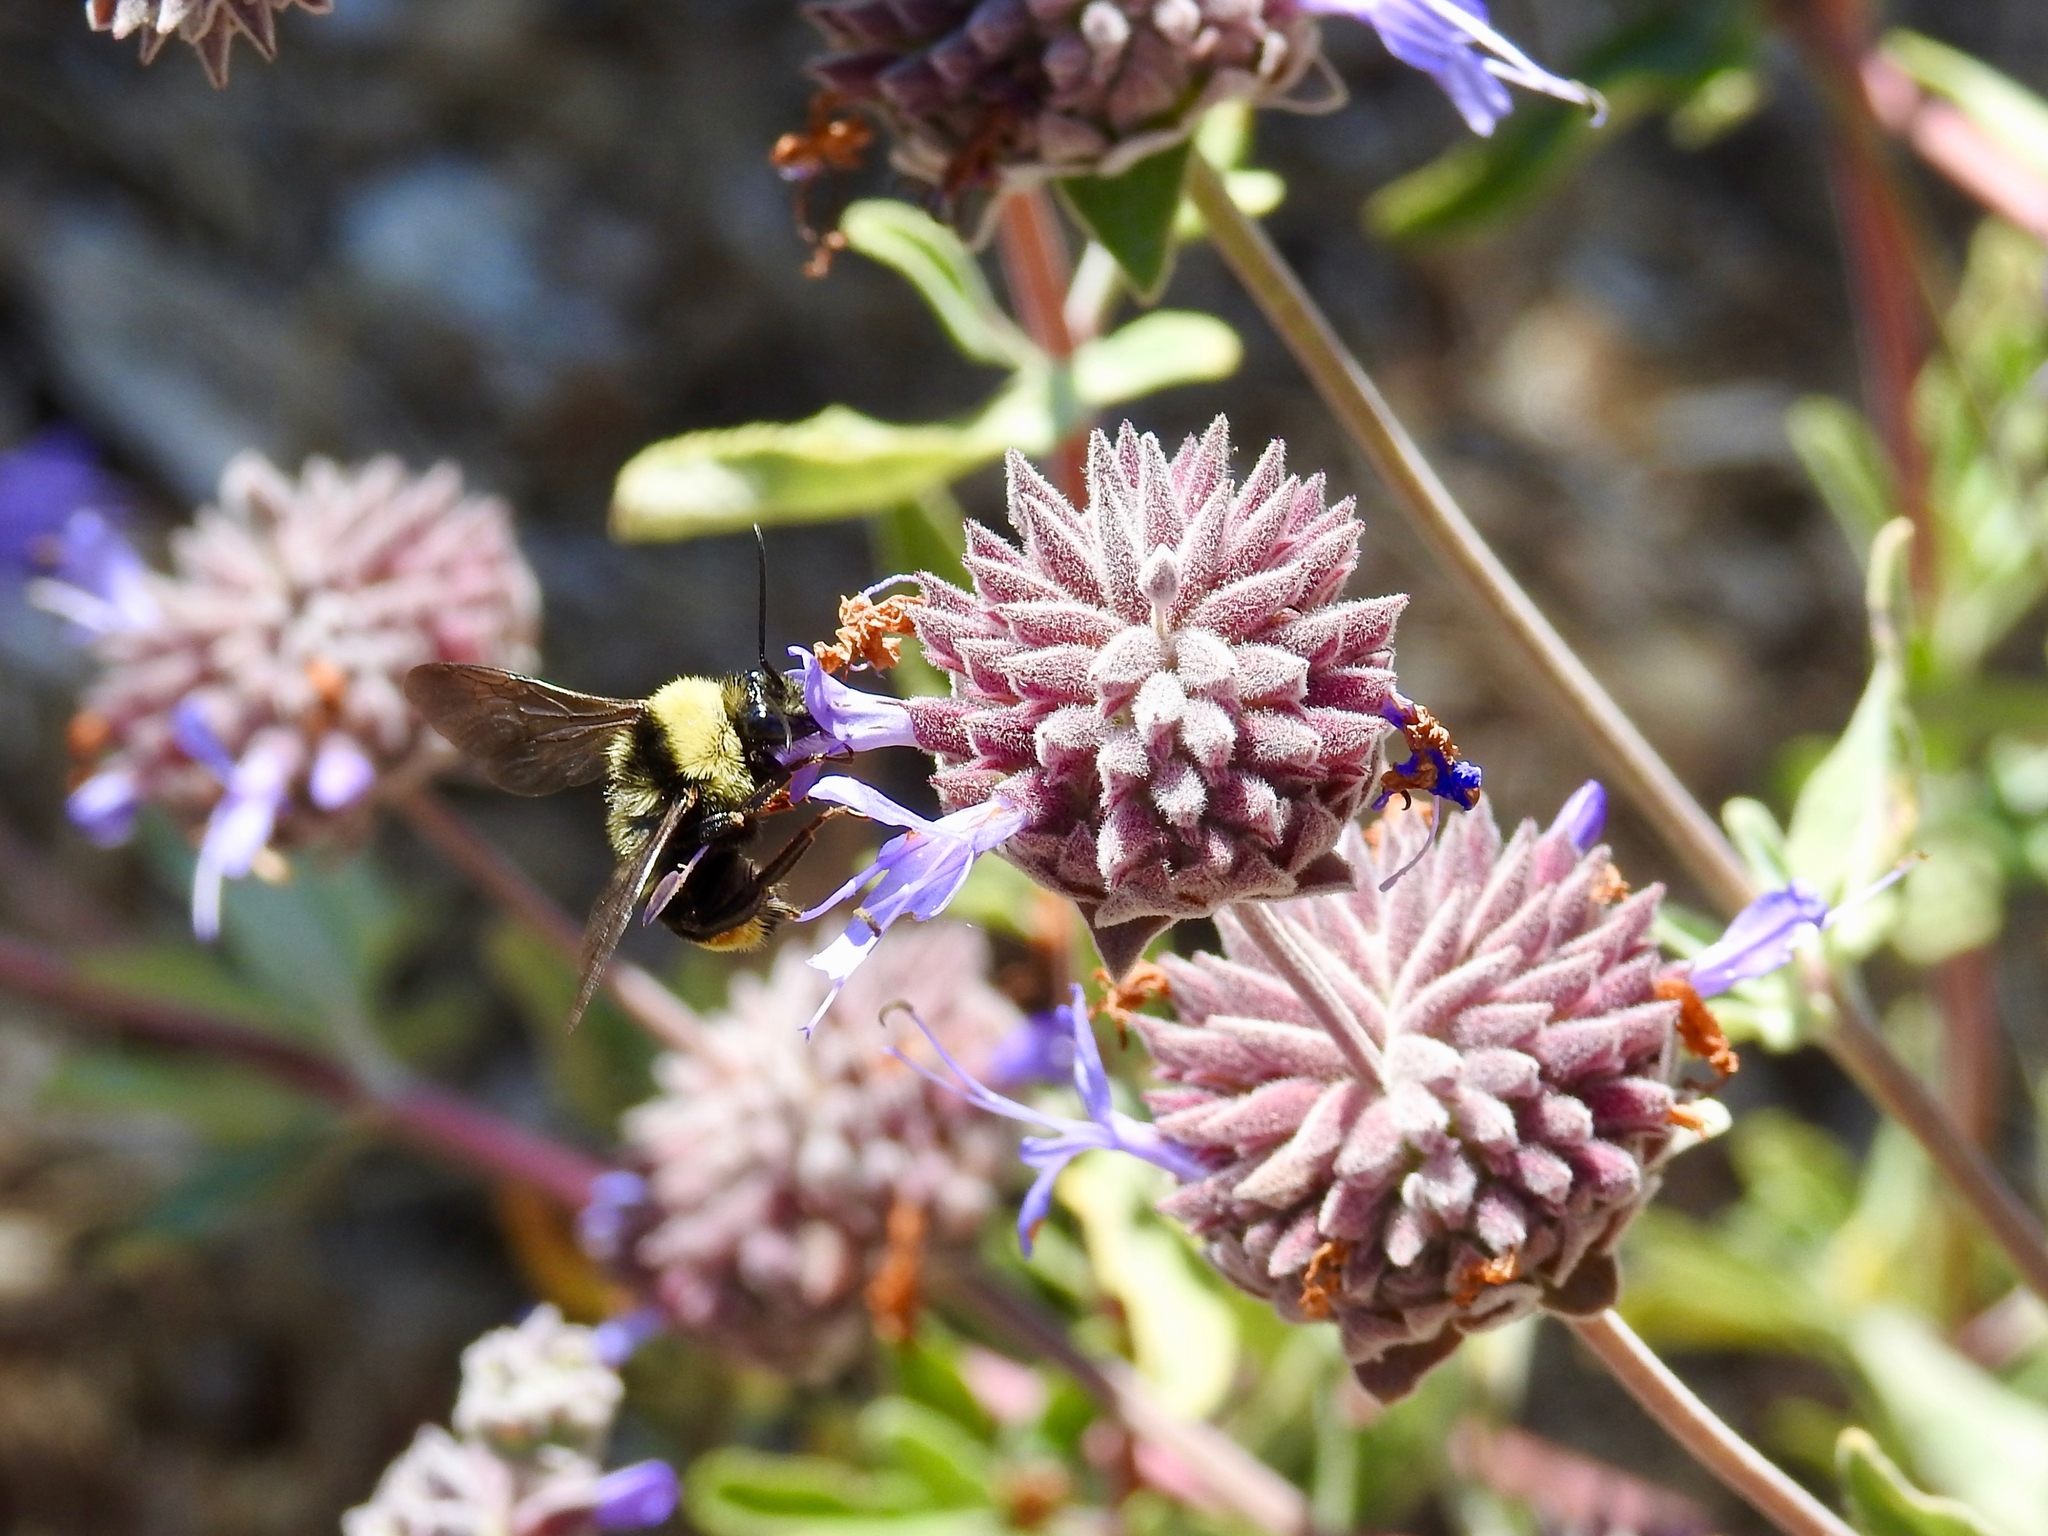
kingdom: Animalia
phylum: Arthropoda
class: Insecta
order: Hymenoptera
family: Apidae
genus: Bombus
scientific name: Bombus californicus
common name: California bumble bee
